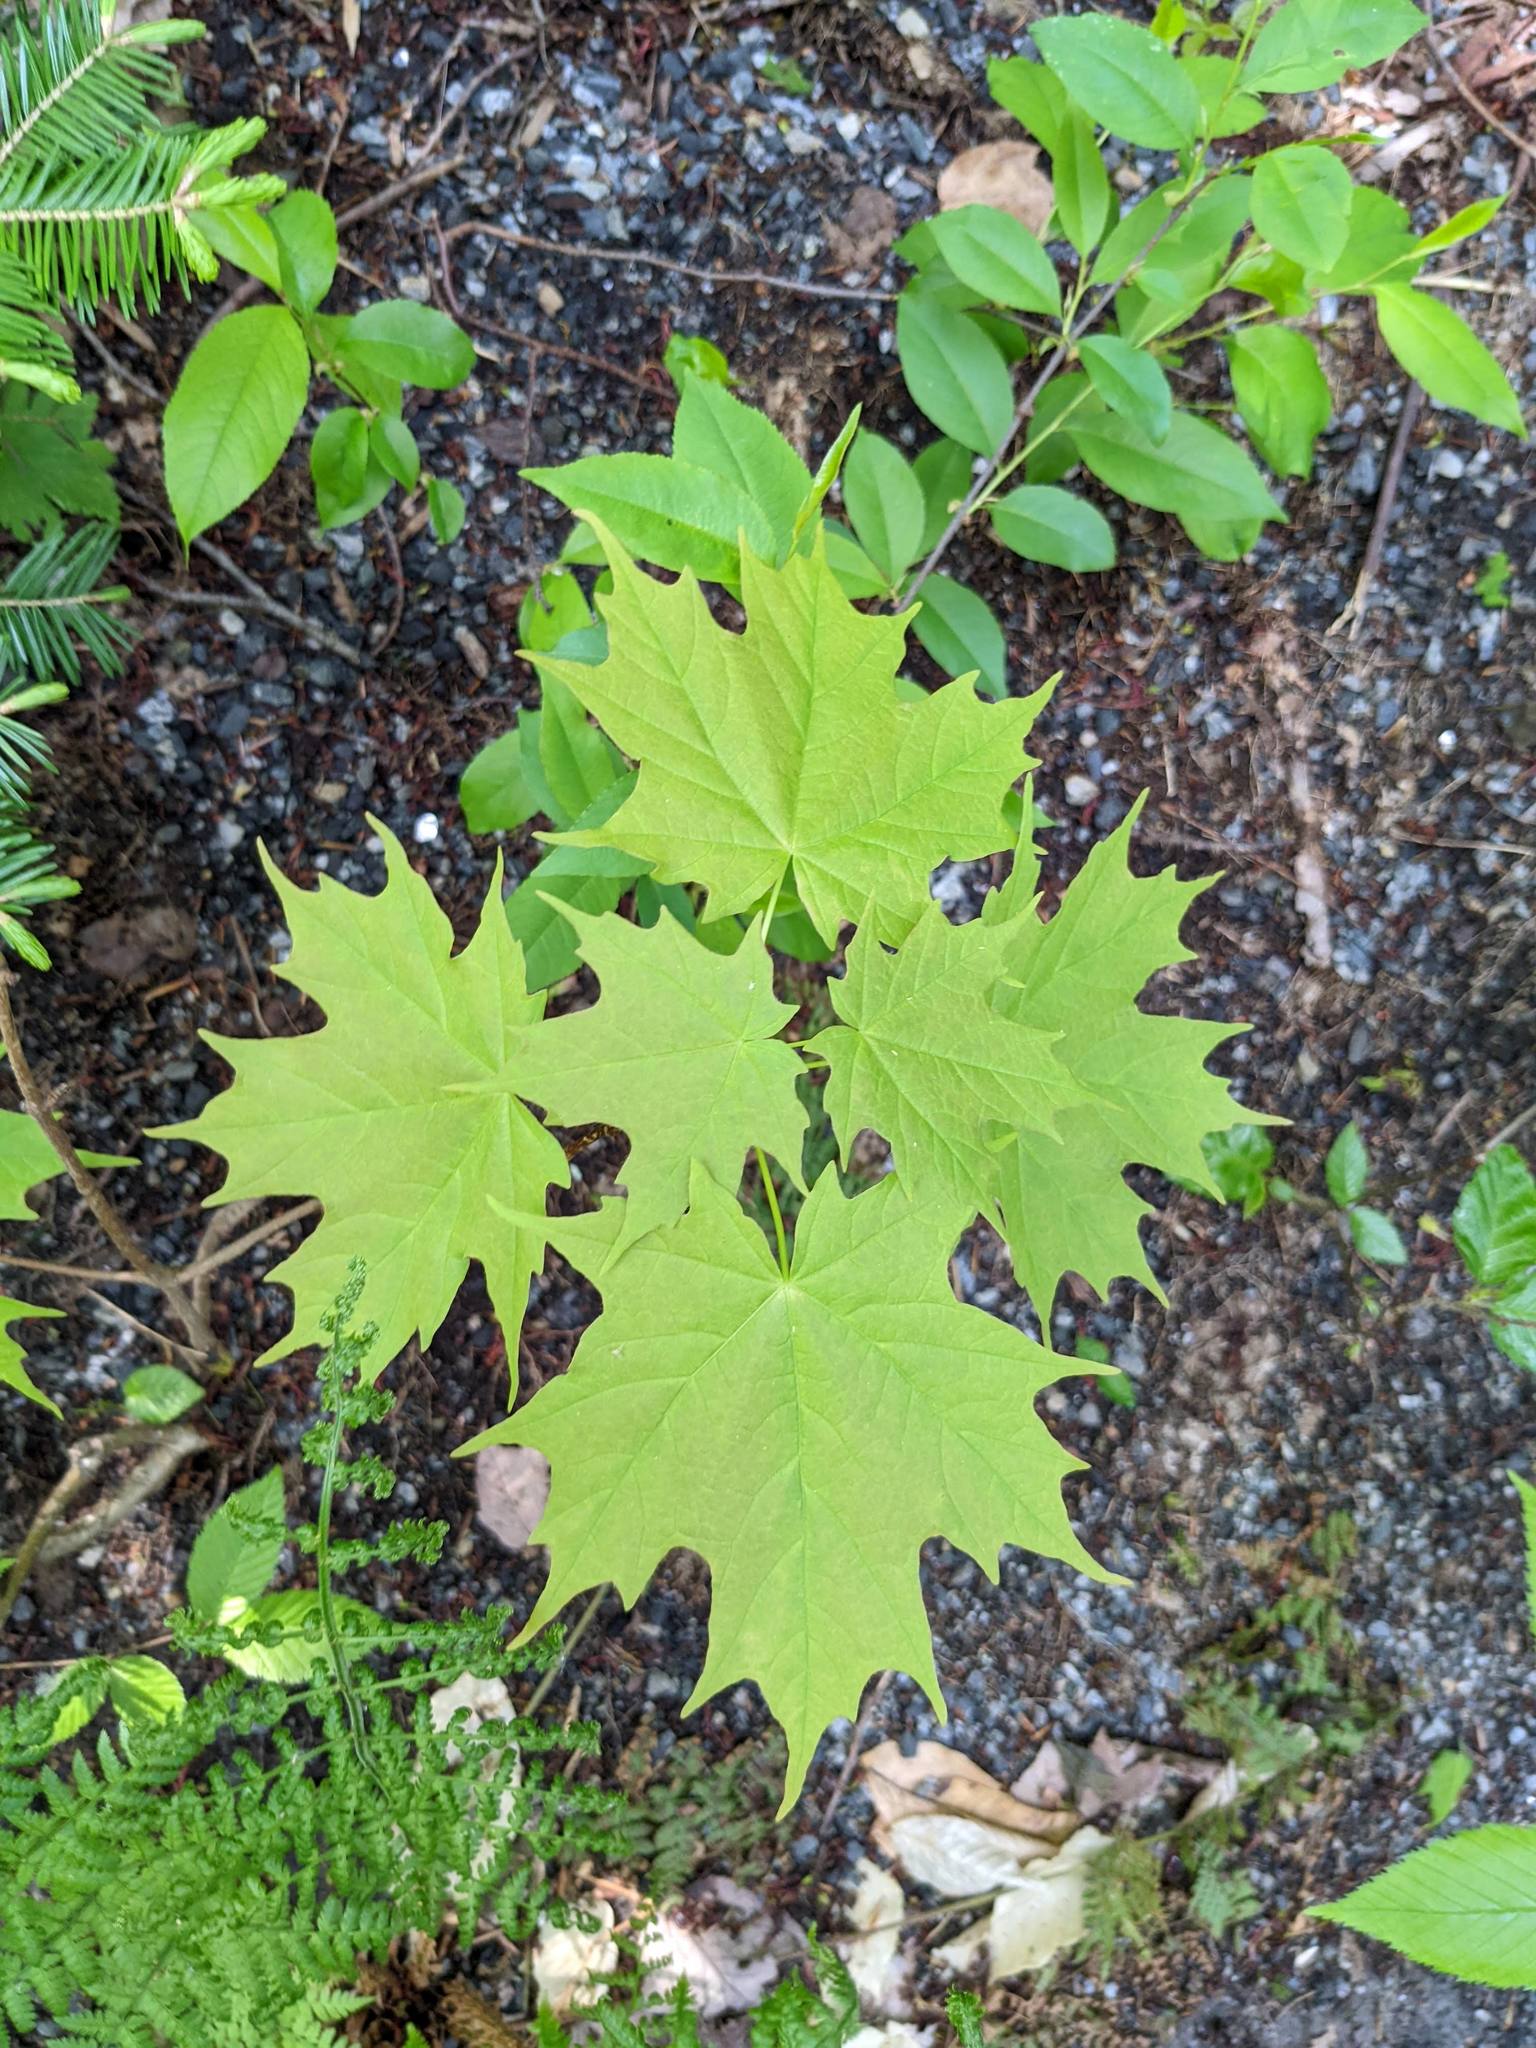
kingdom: Plantae
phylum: Tracheophyta
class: Magnoliopsida
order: Sapindales
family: Sapindaceae
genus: Acer
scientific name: Acer saccharum
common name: Sugar maple
